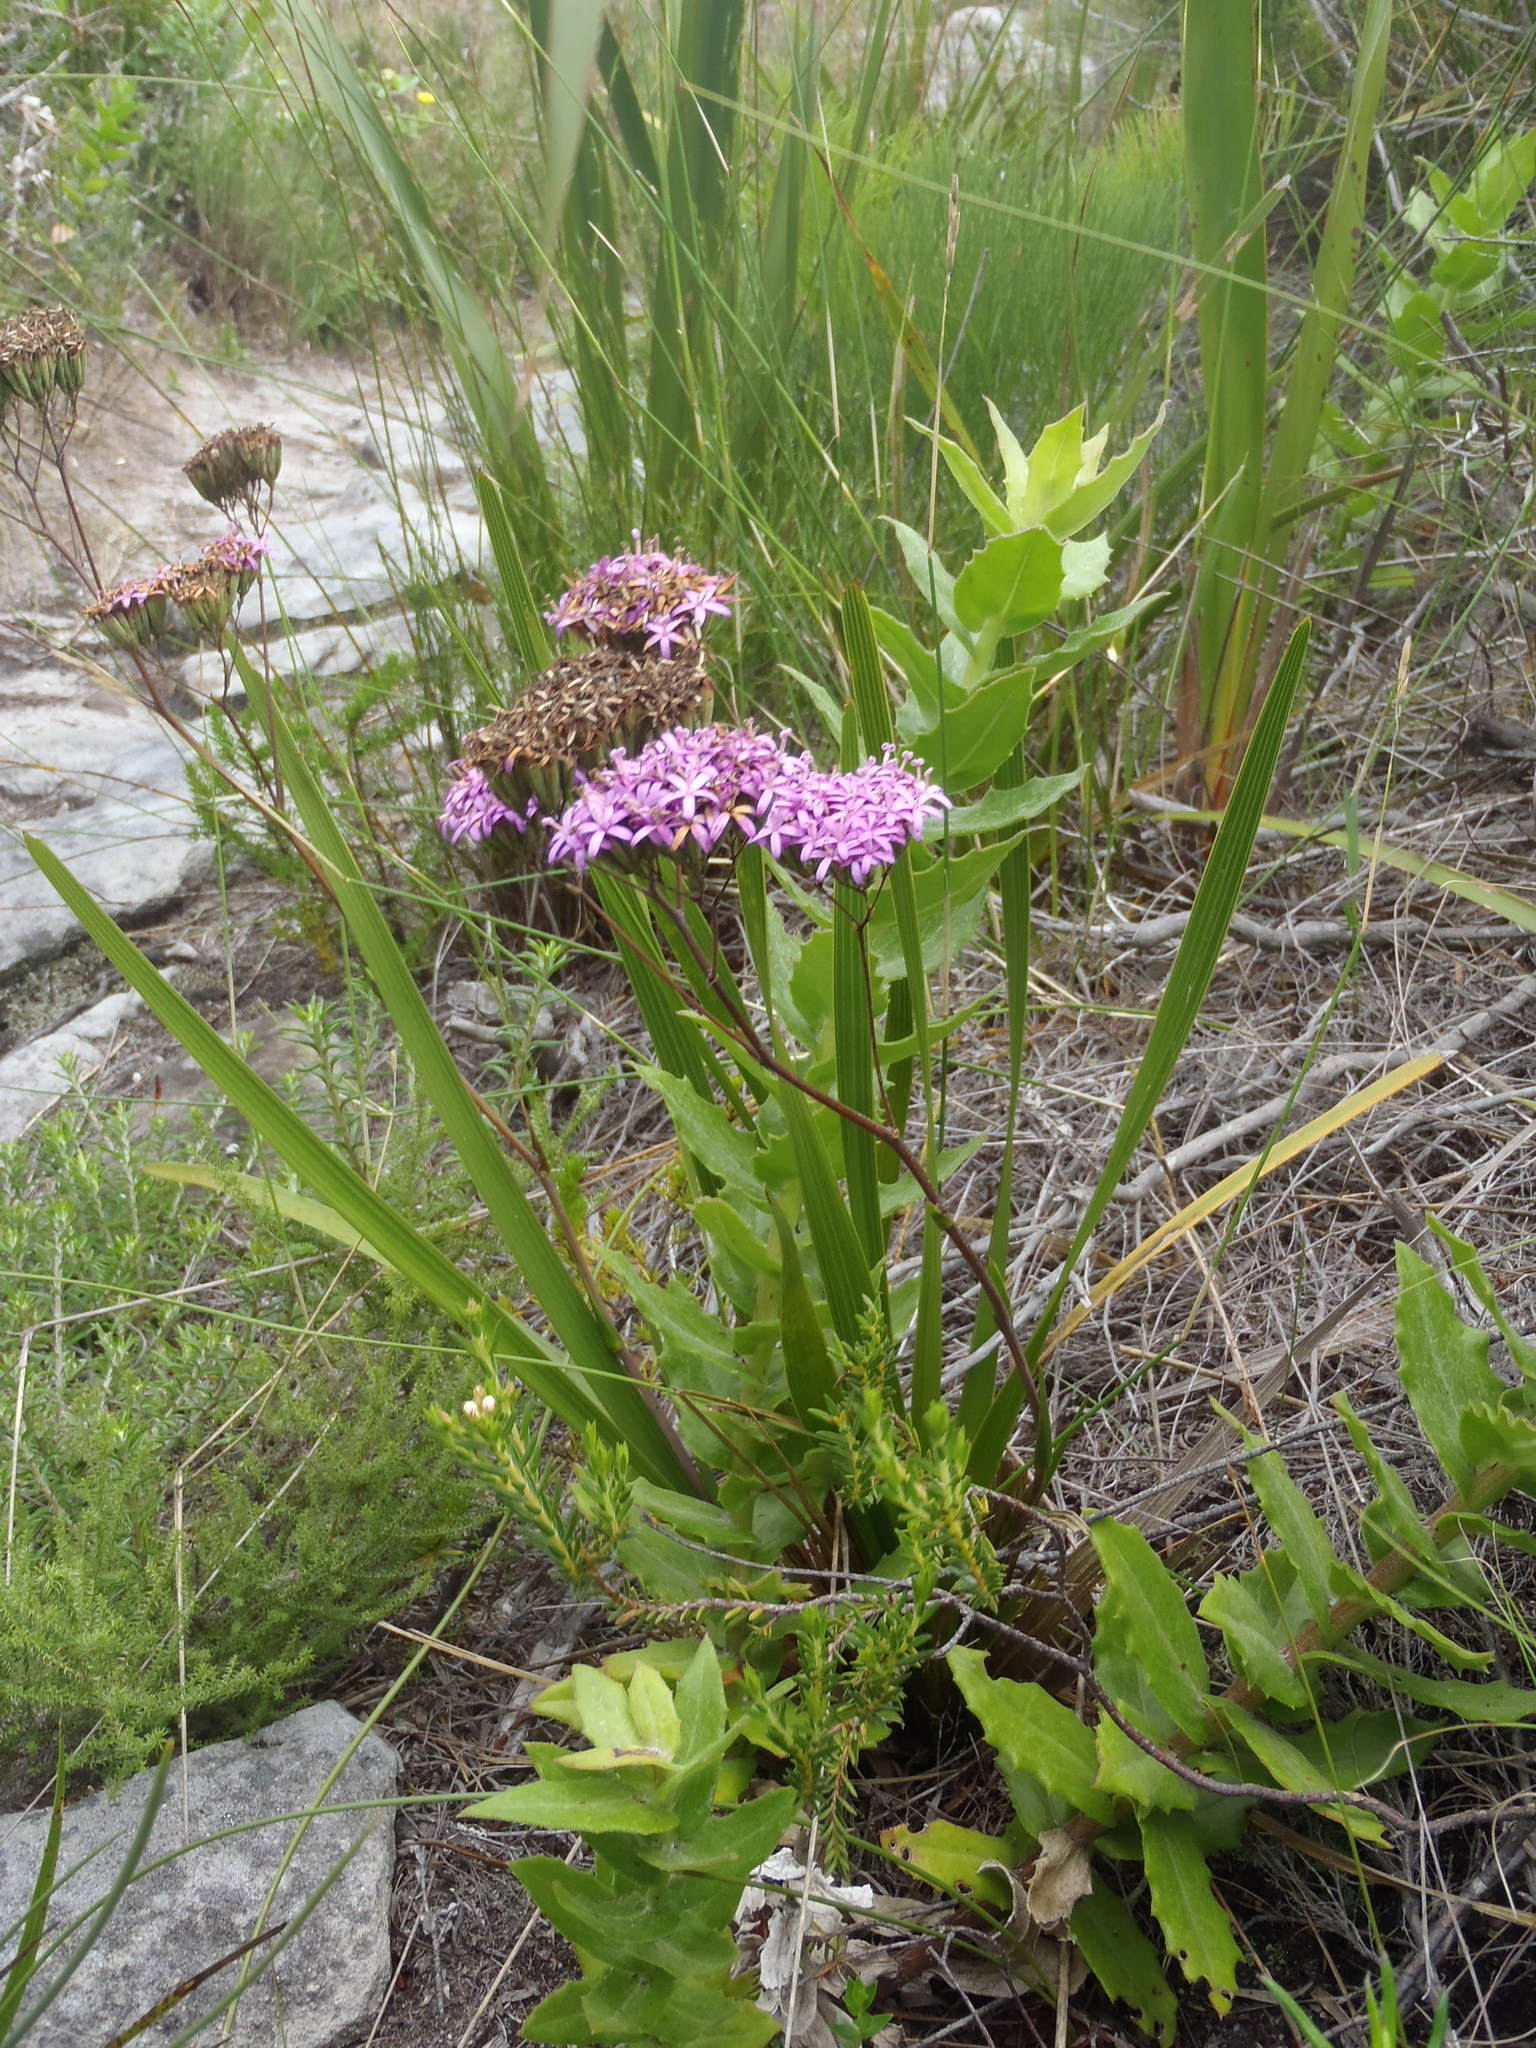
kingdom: Plantae
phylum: Tracheophyta
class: Magnoliopsida
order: Asterales
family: Asteraceae
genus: Corymbium
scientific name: Corymbium glabrum
